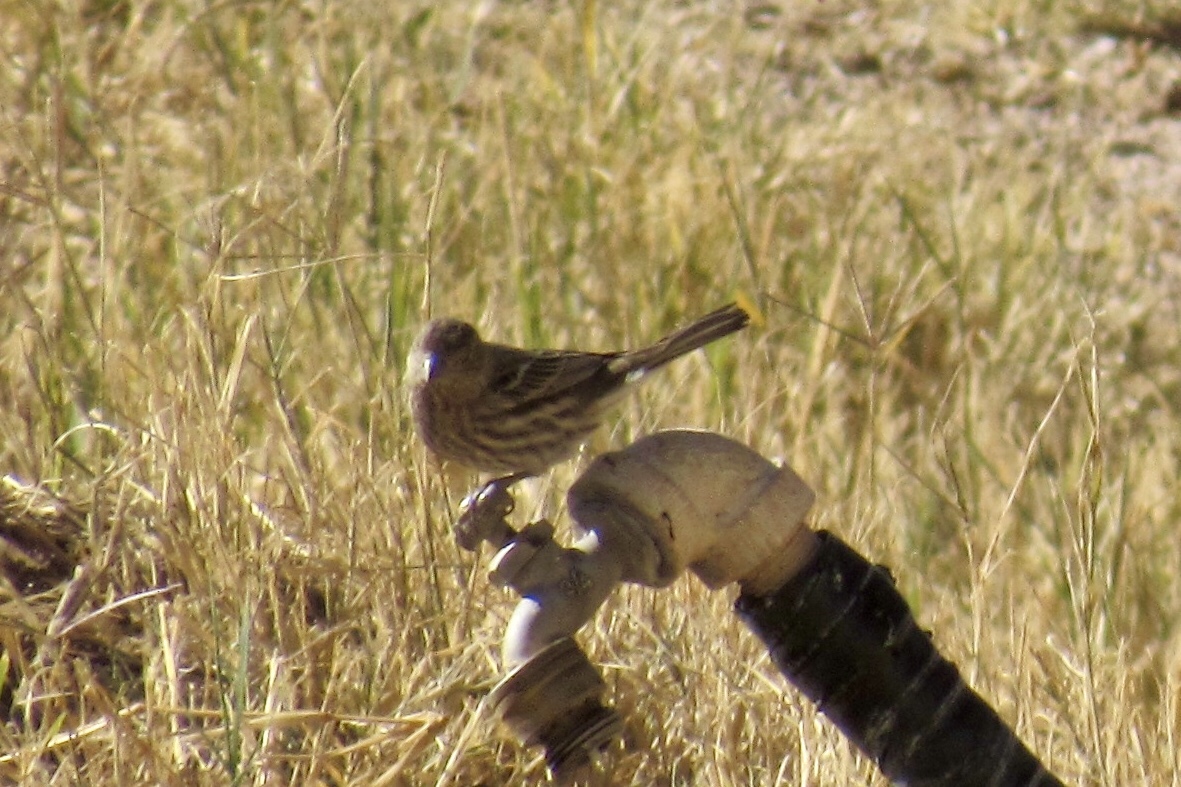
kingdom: Animalia
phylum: Chordata
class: Aves
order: Passeriformes
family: Fringillidae
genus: Haemorhous
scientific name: Haemorhous mexicanus
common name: House finch
